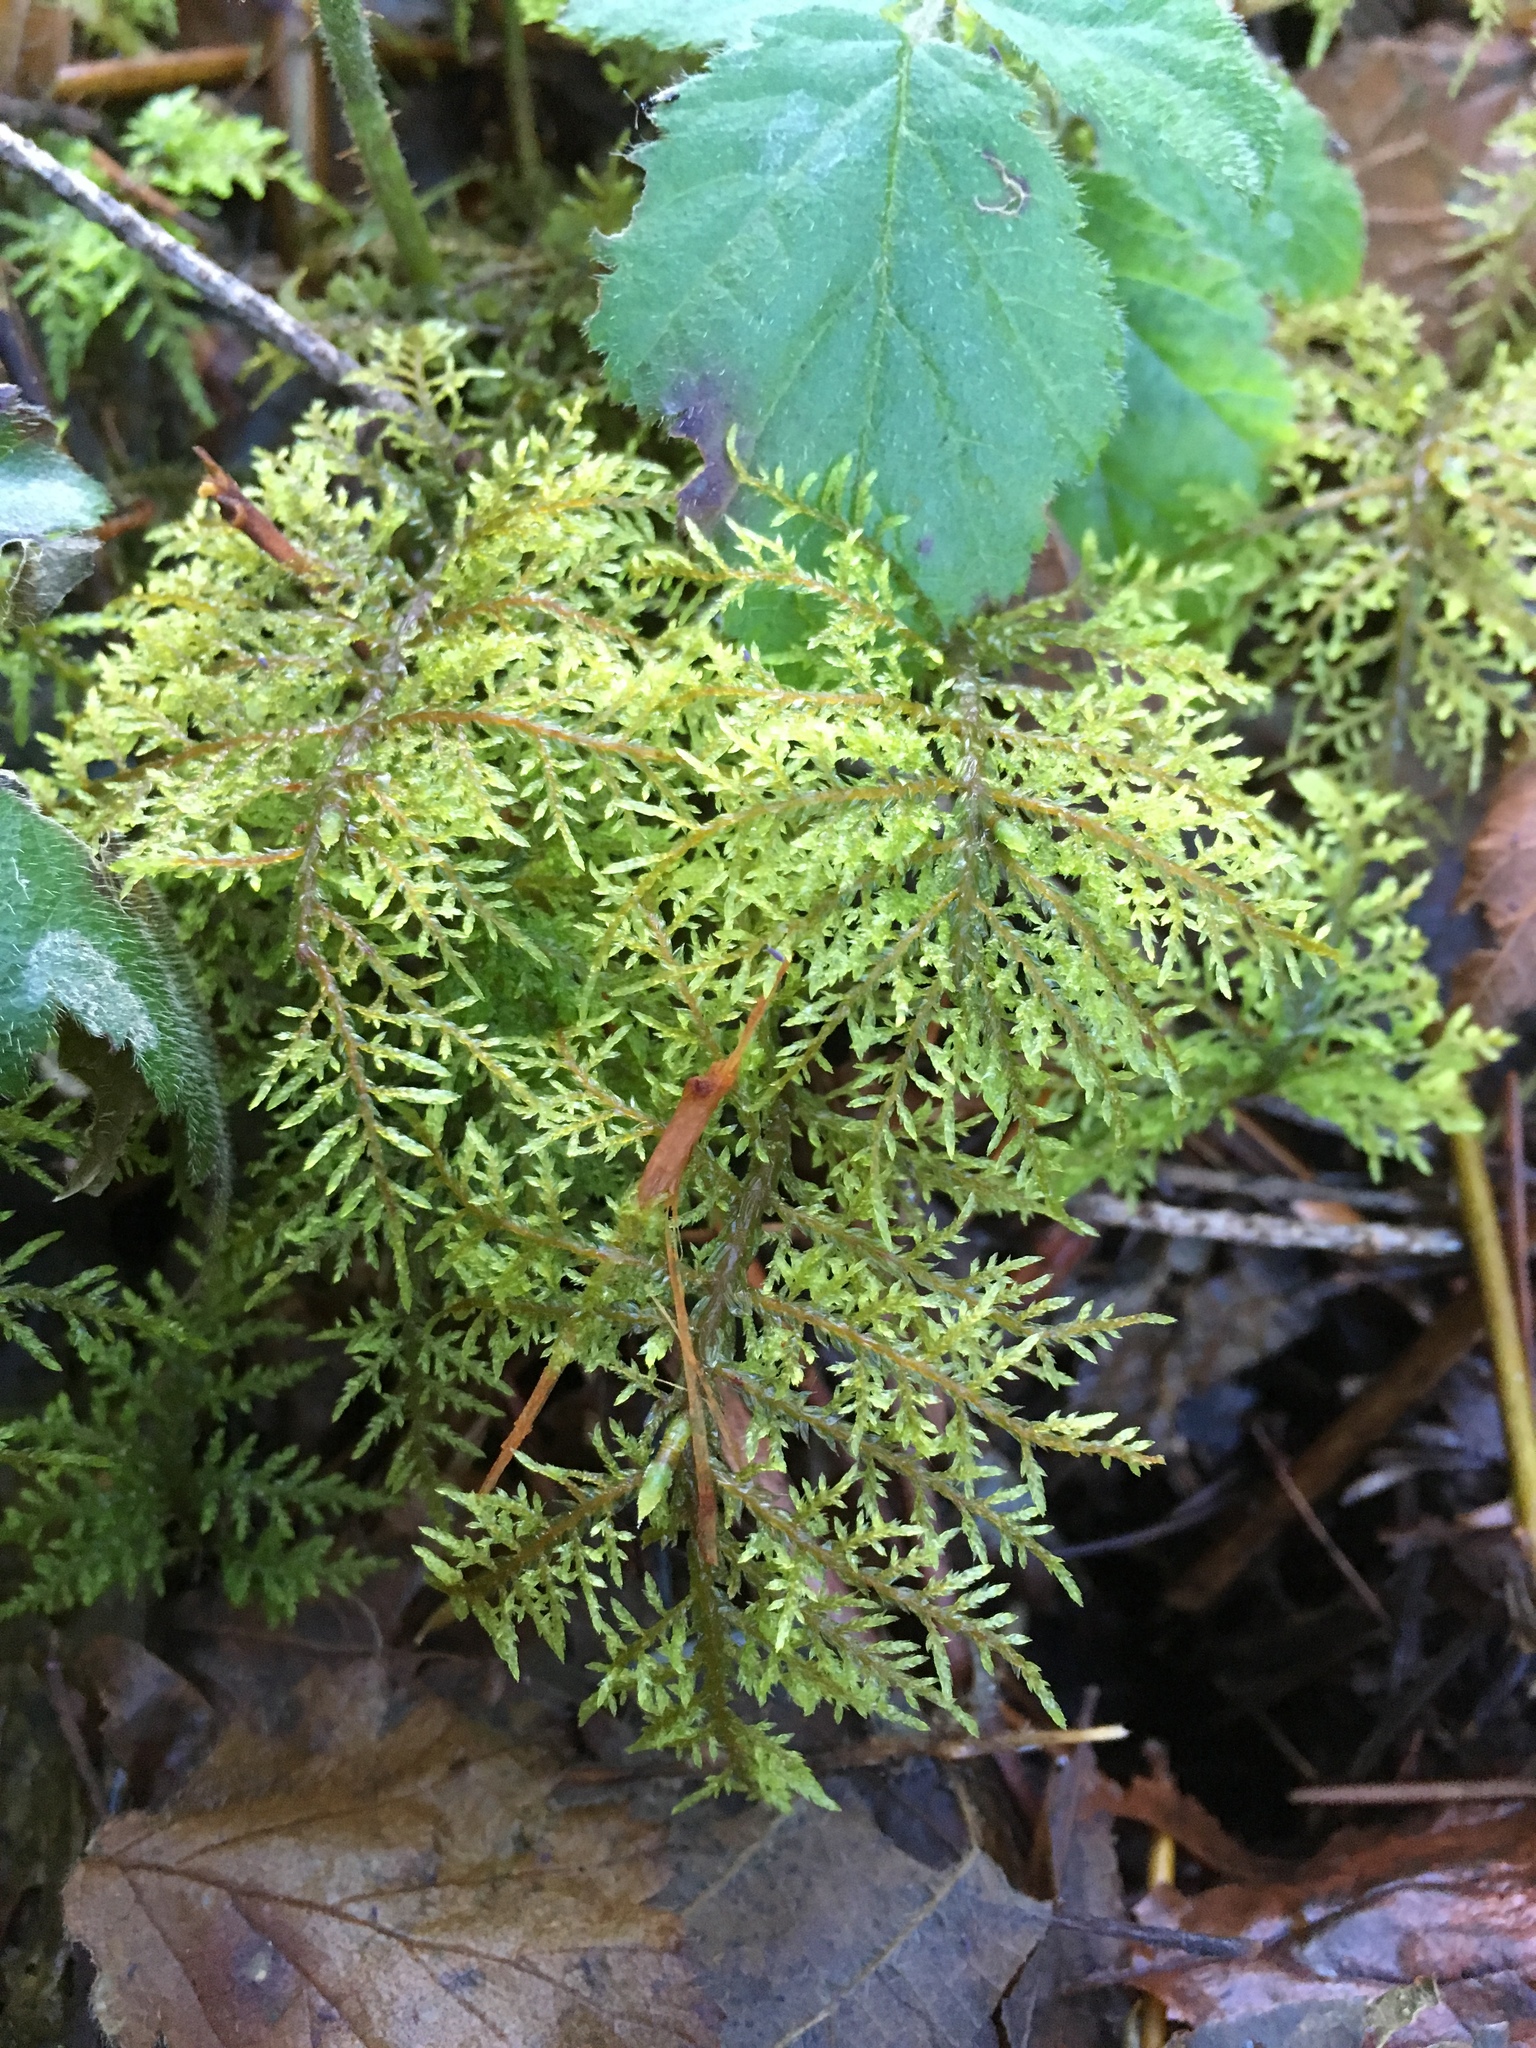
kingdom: Plantae
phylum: Bryophyta
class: Bryopsida
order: Hypnales
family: Hylocomiaceae
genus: Hylocomium
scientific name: Hylocomium splendens
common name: Stairstep moss
